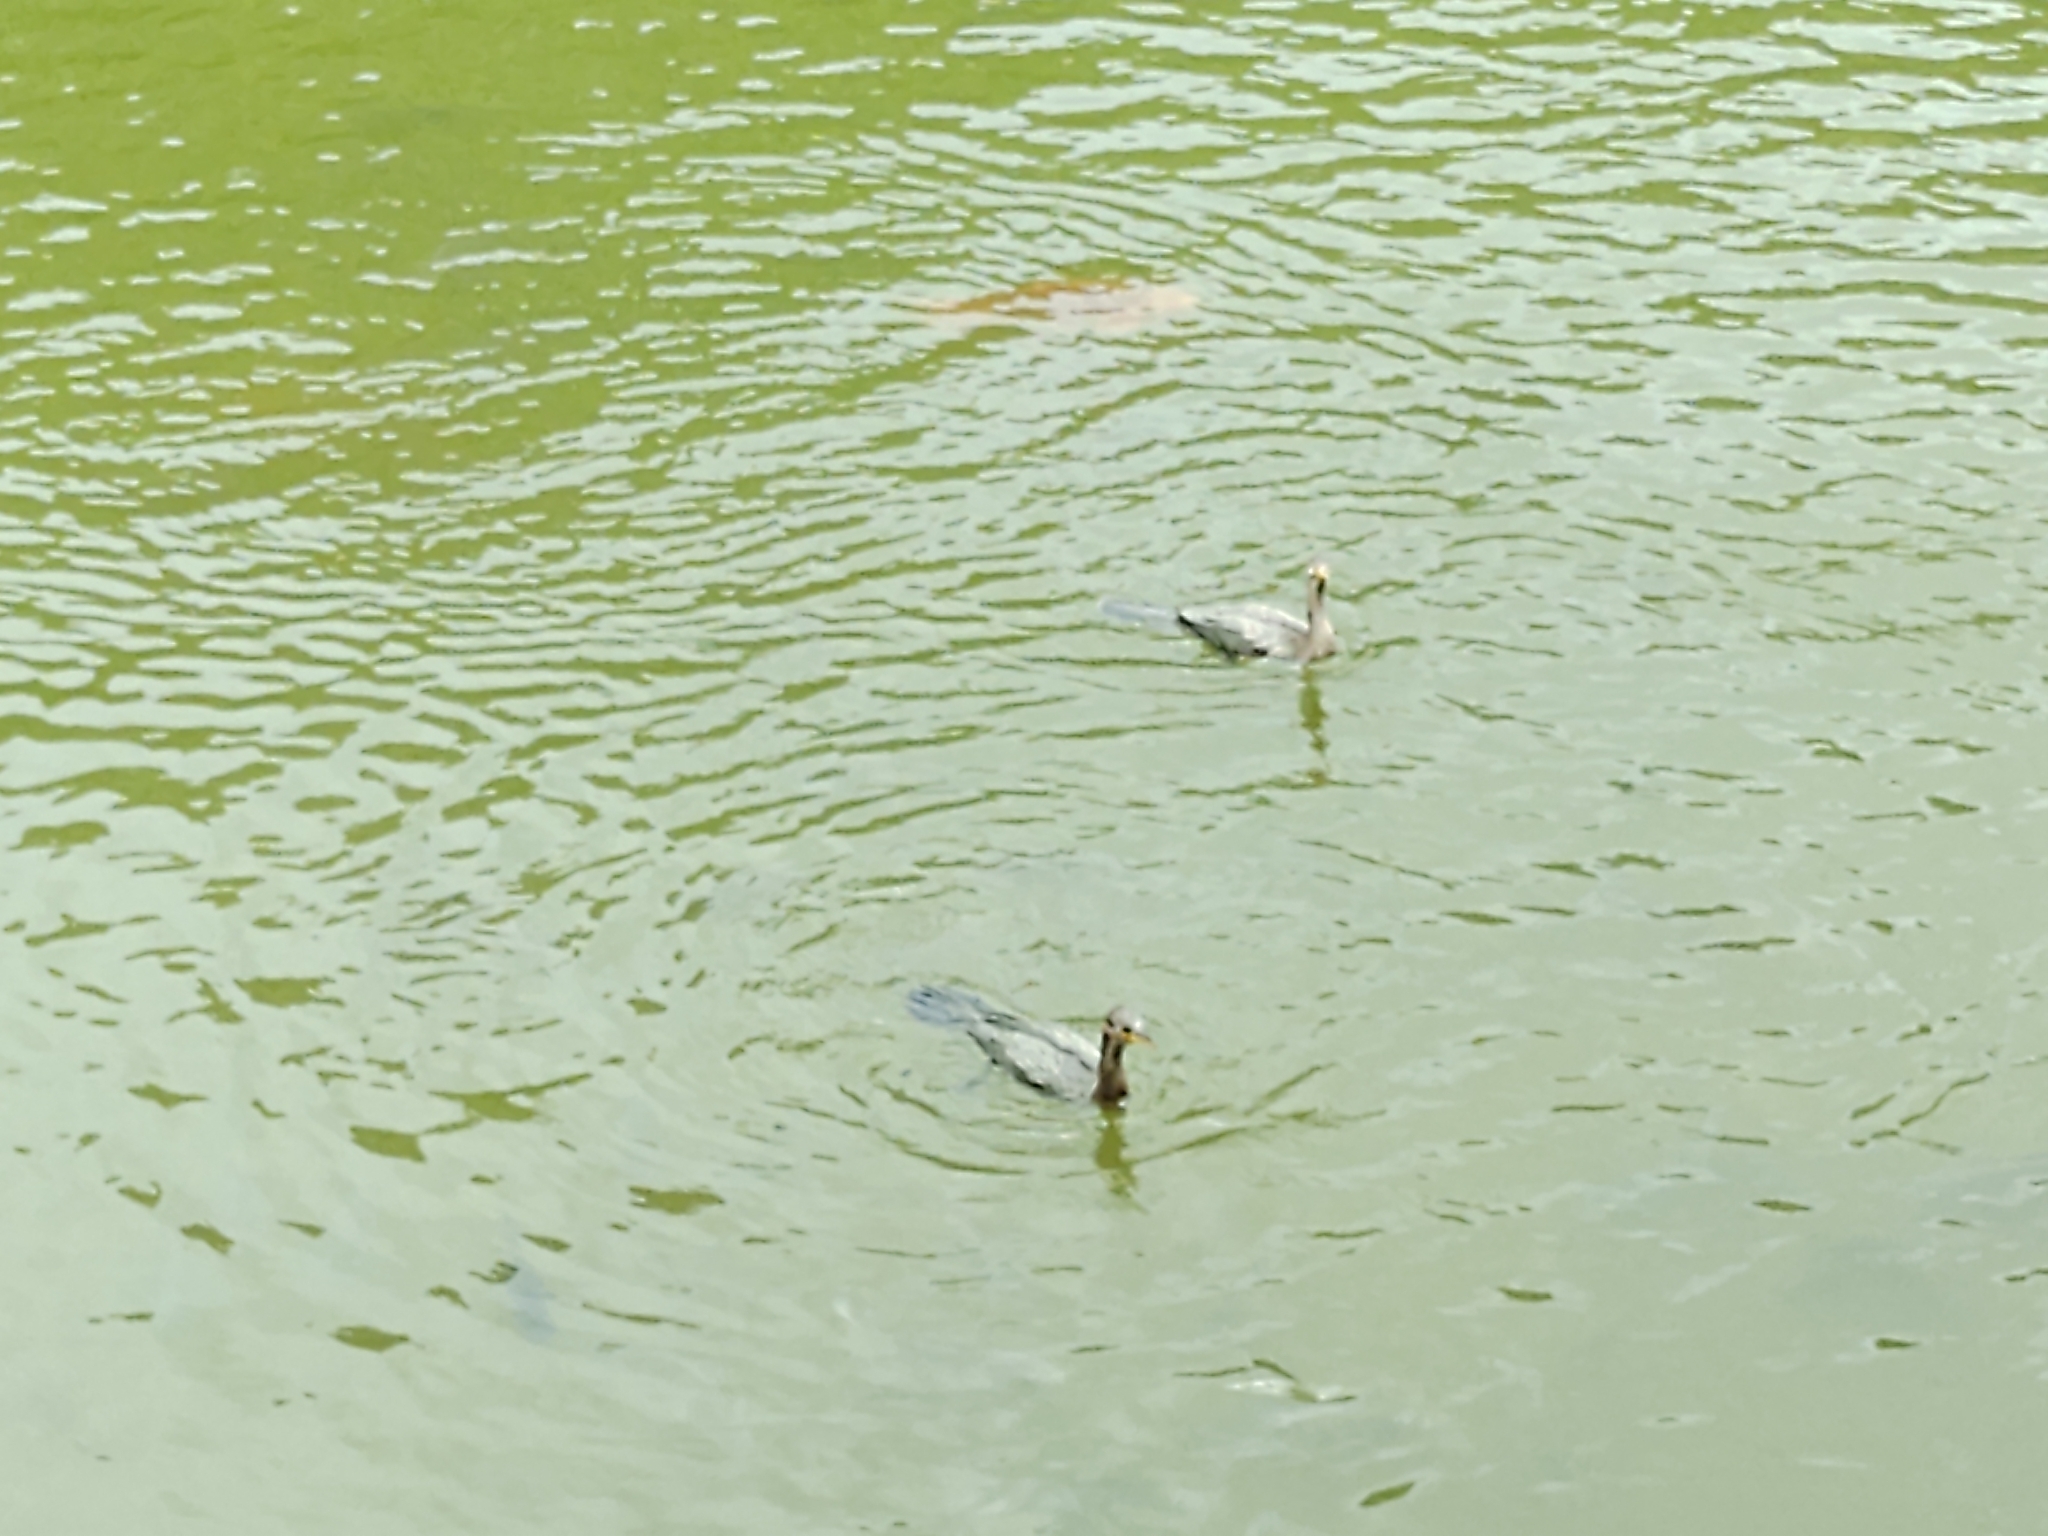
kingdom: Animalia
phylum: Chordata
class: Aves
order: Podicipediformes
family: Podicipedidae
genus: Tachybaptus
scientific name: Tachybaptus dominicus
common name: Least grebe
